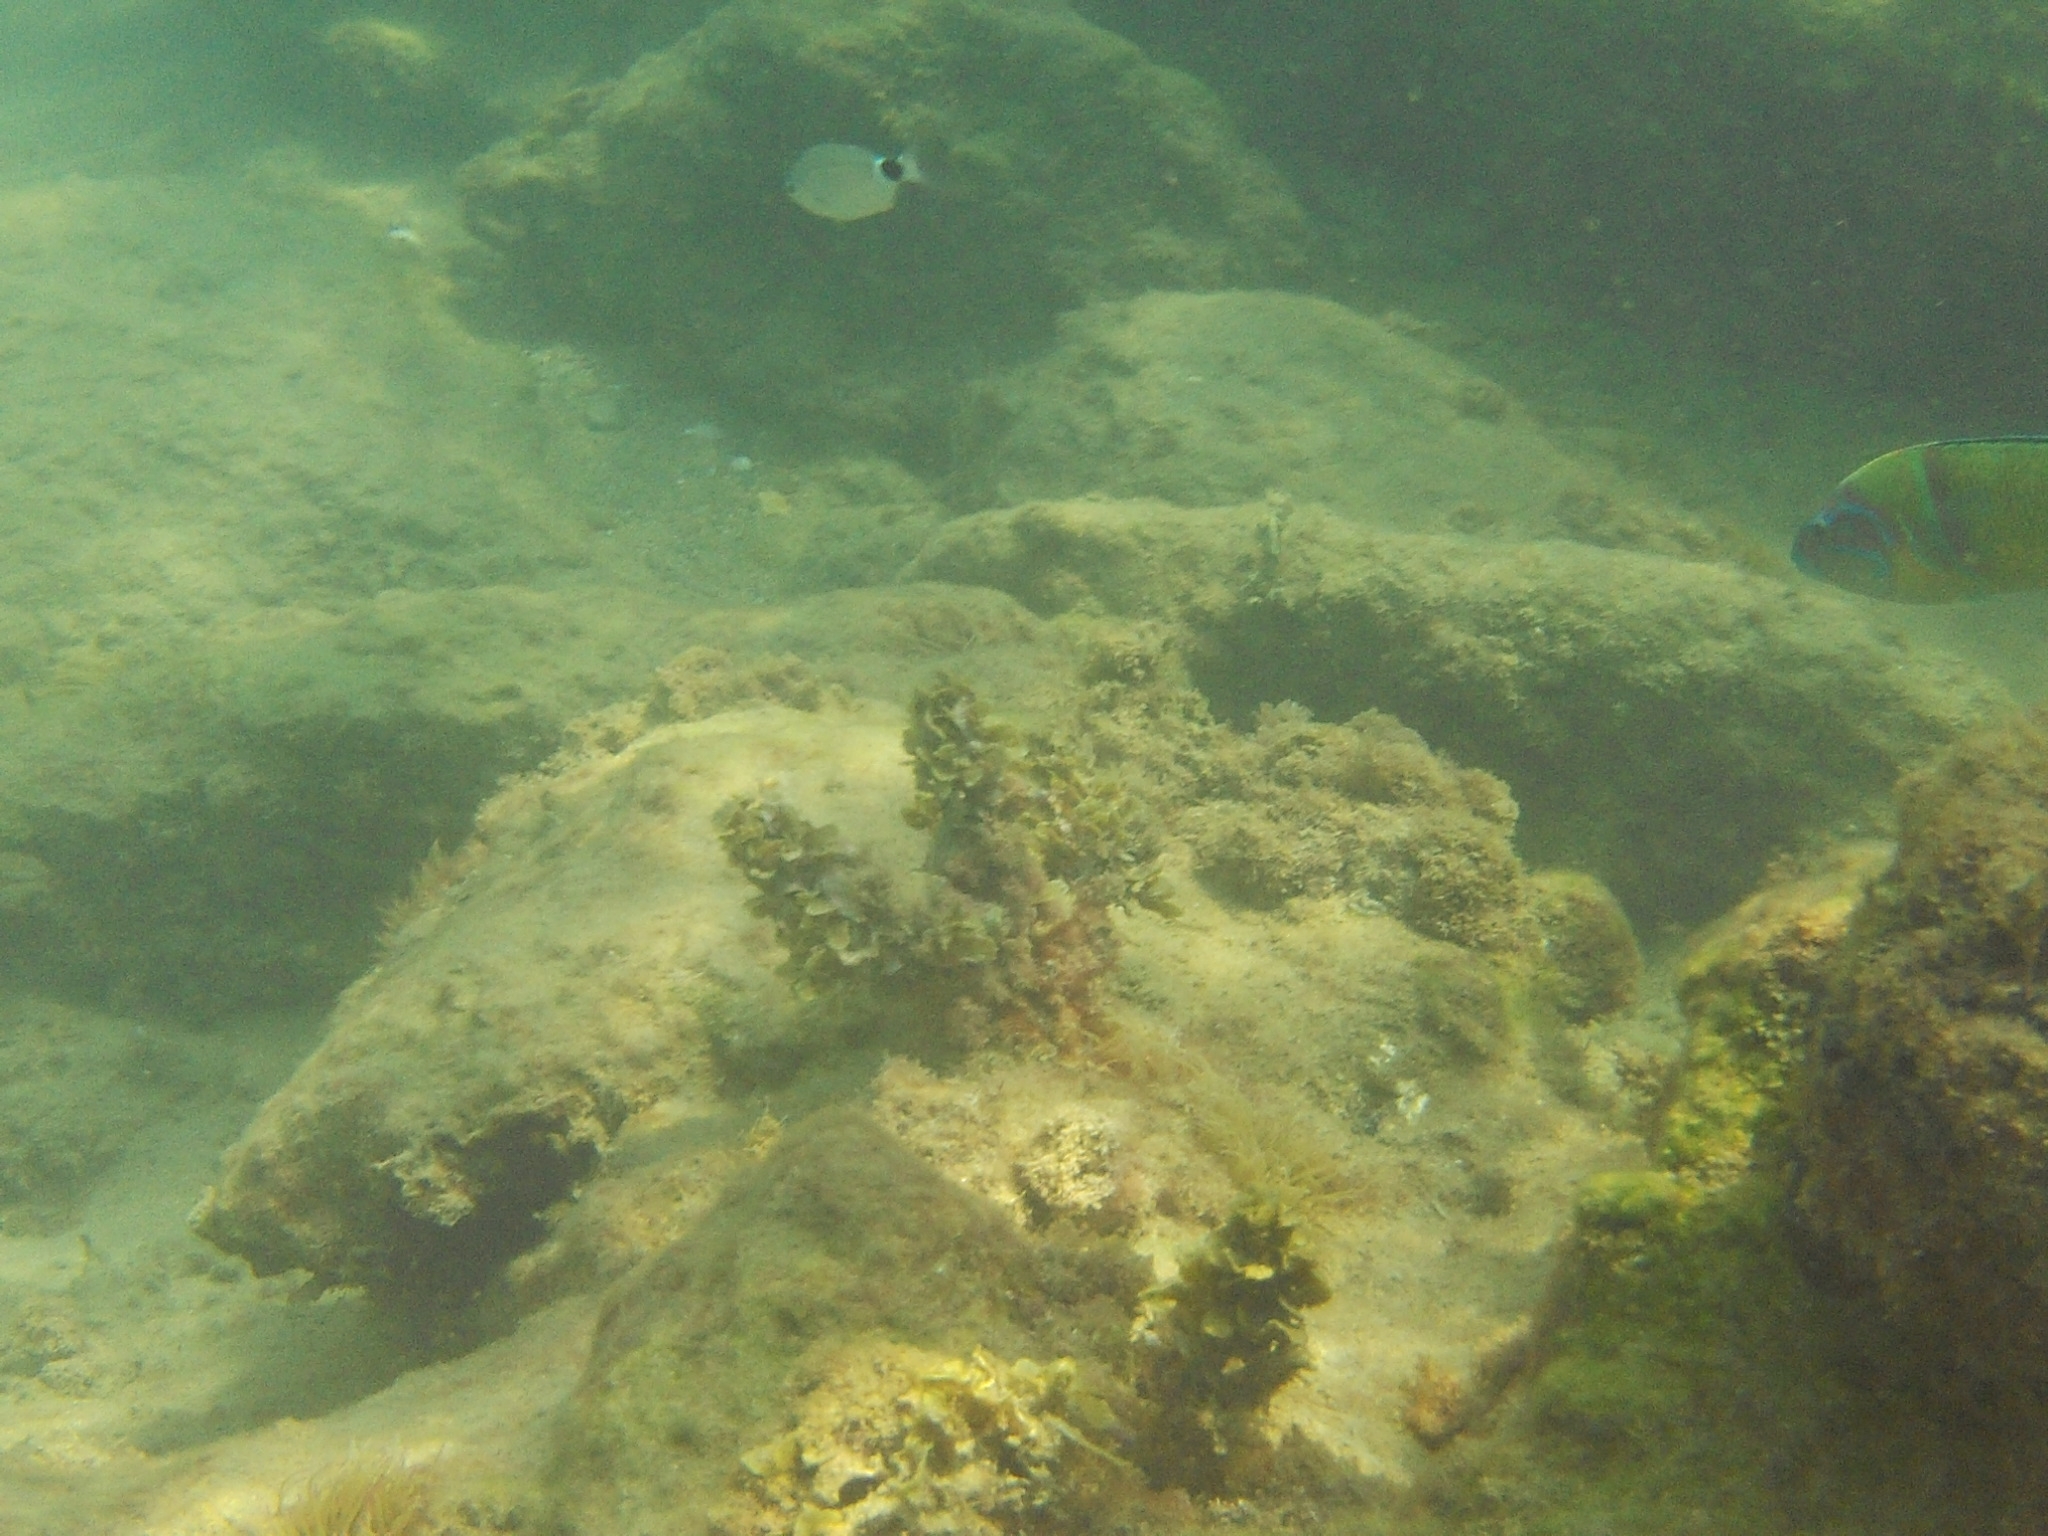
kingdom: Animalia
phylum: Chordata
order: Perciformes
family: Sparidae
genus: Oblada
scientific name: Oblada melanura
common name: Saddled seabream
